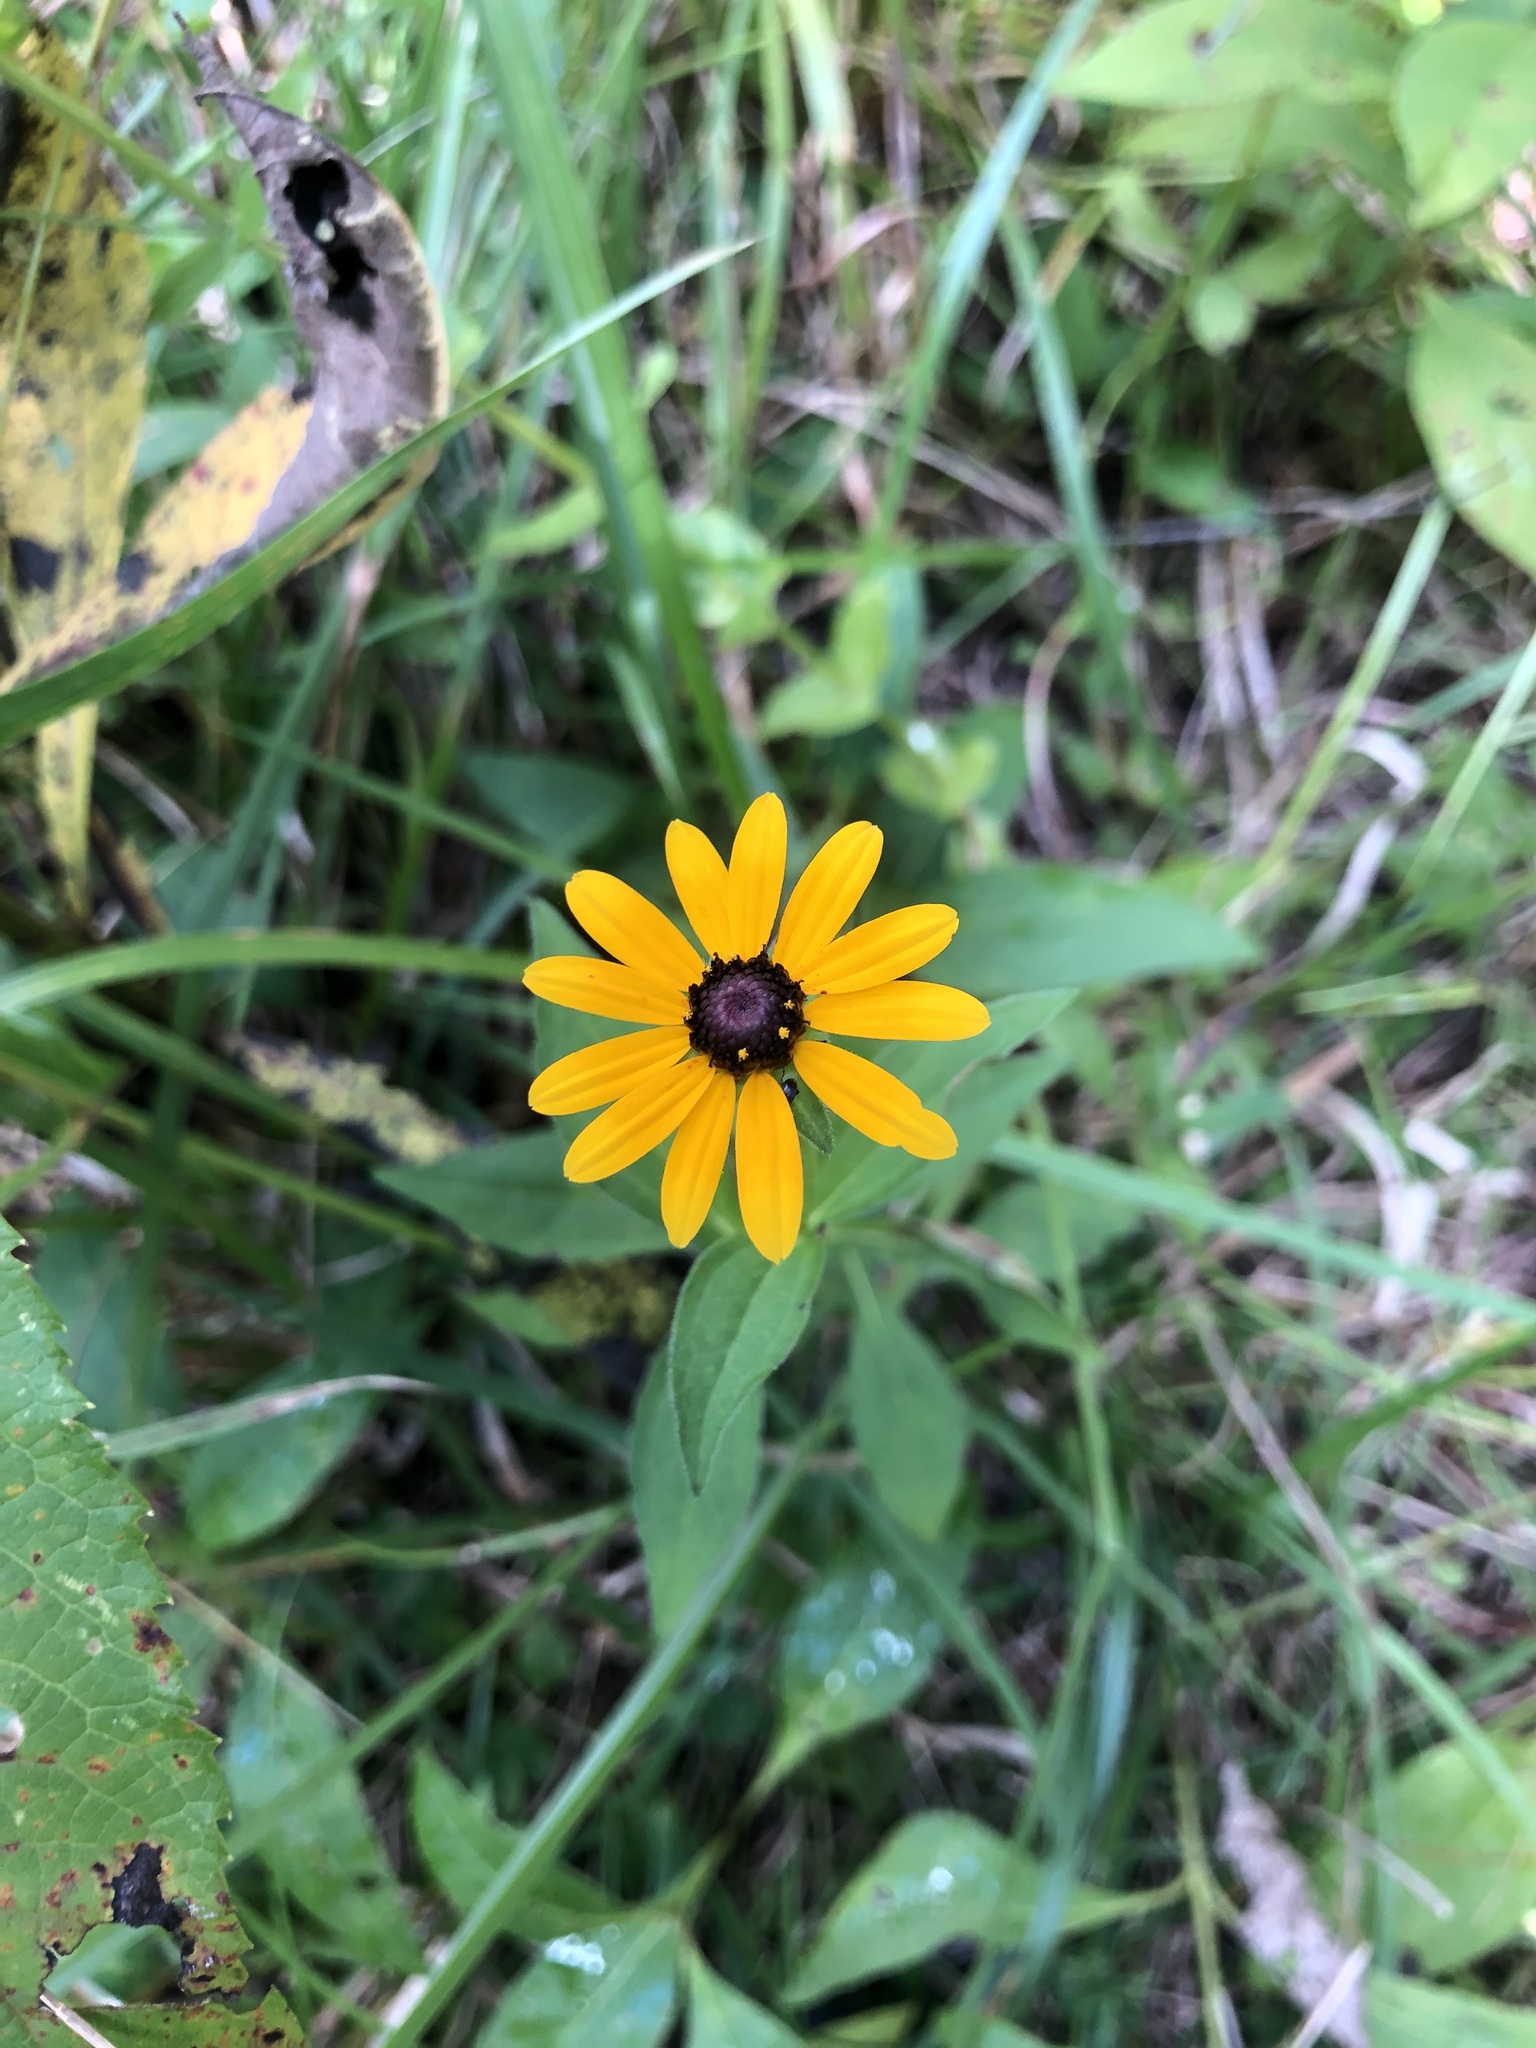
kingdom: Plantae
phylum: Tracheophyta
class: Magnoliopsida
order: Asterales
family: Asteraceae
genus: Rudbeckia
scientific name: Rudbeckia terranigrae
